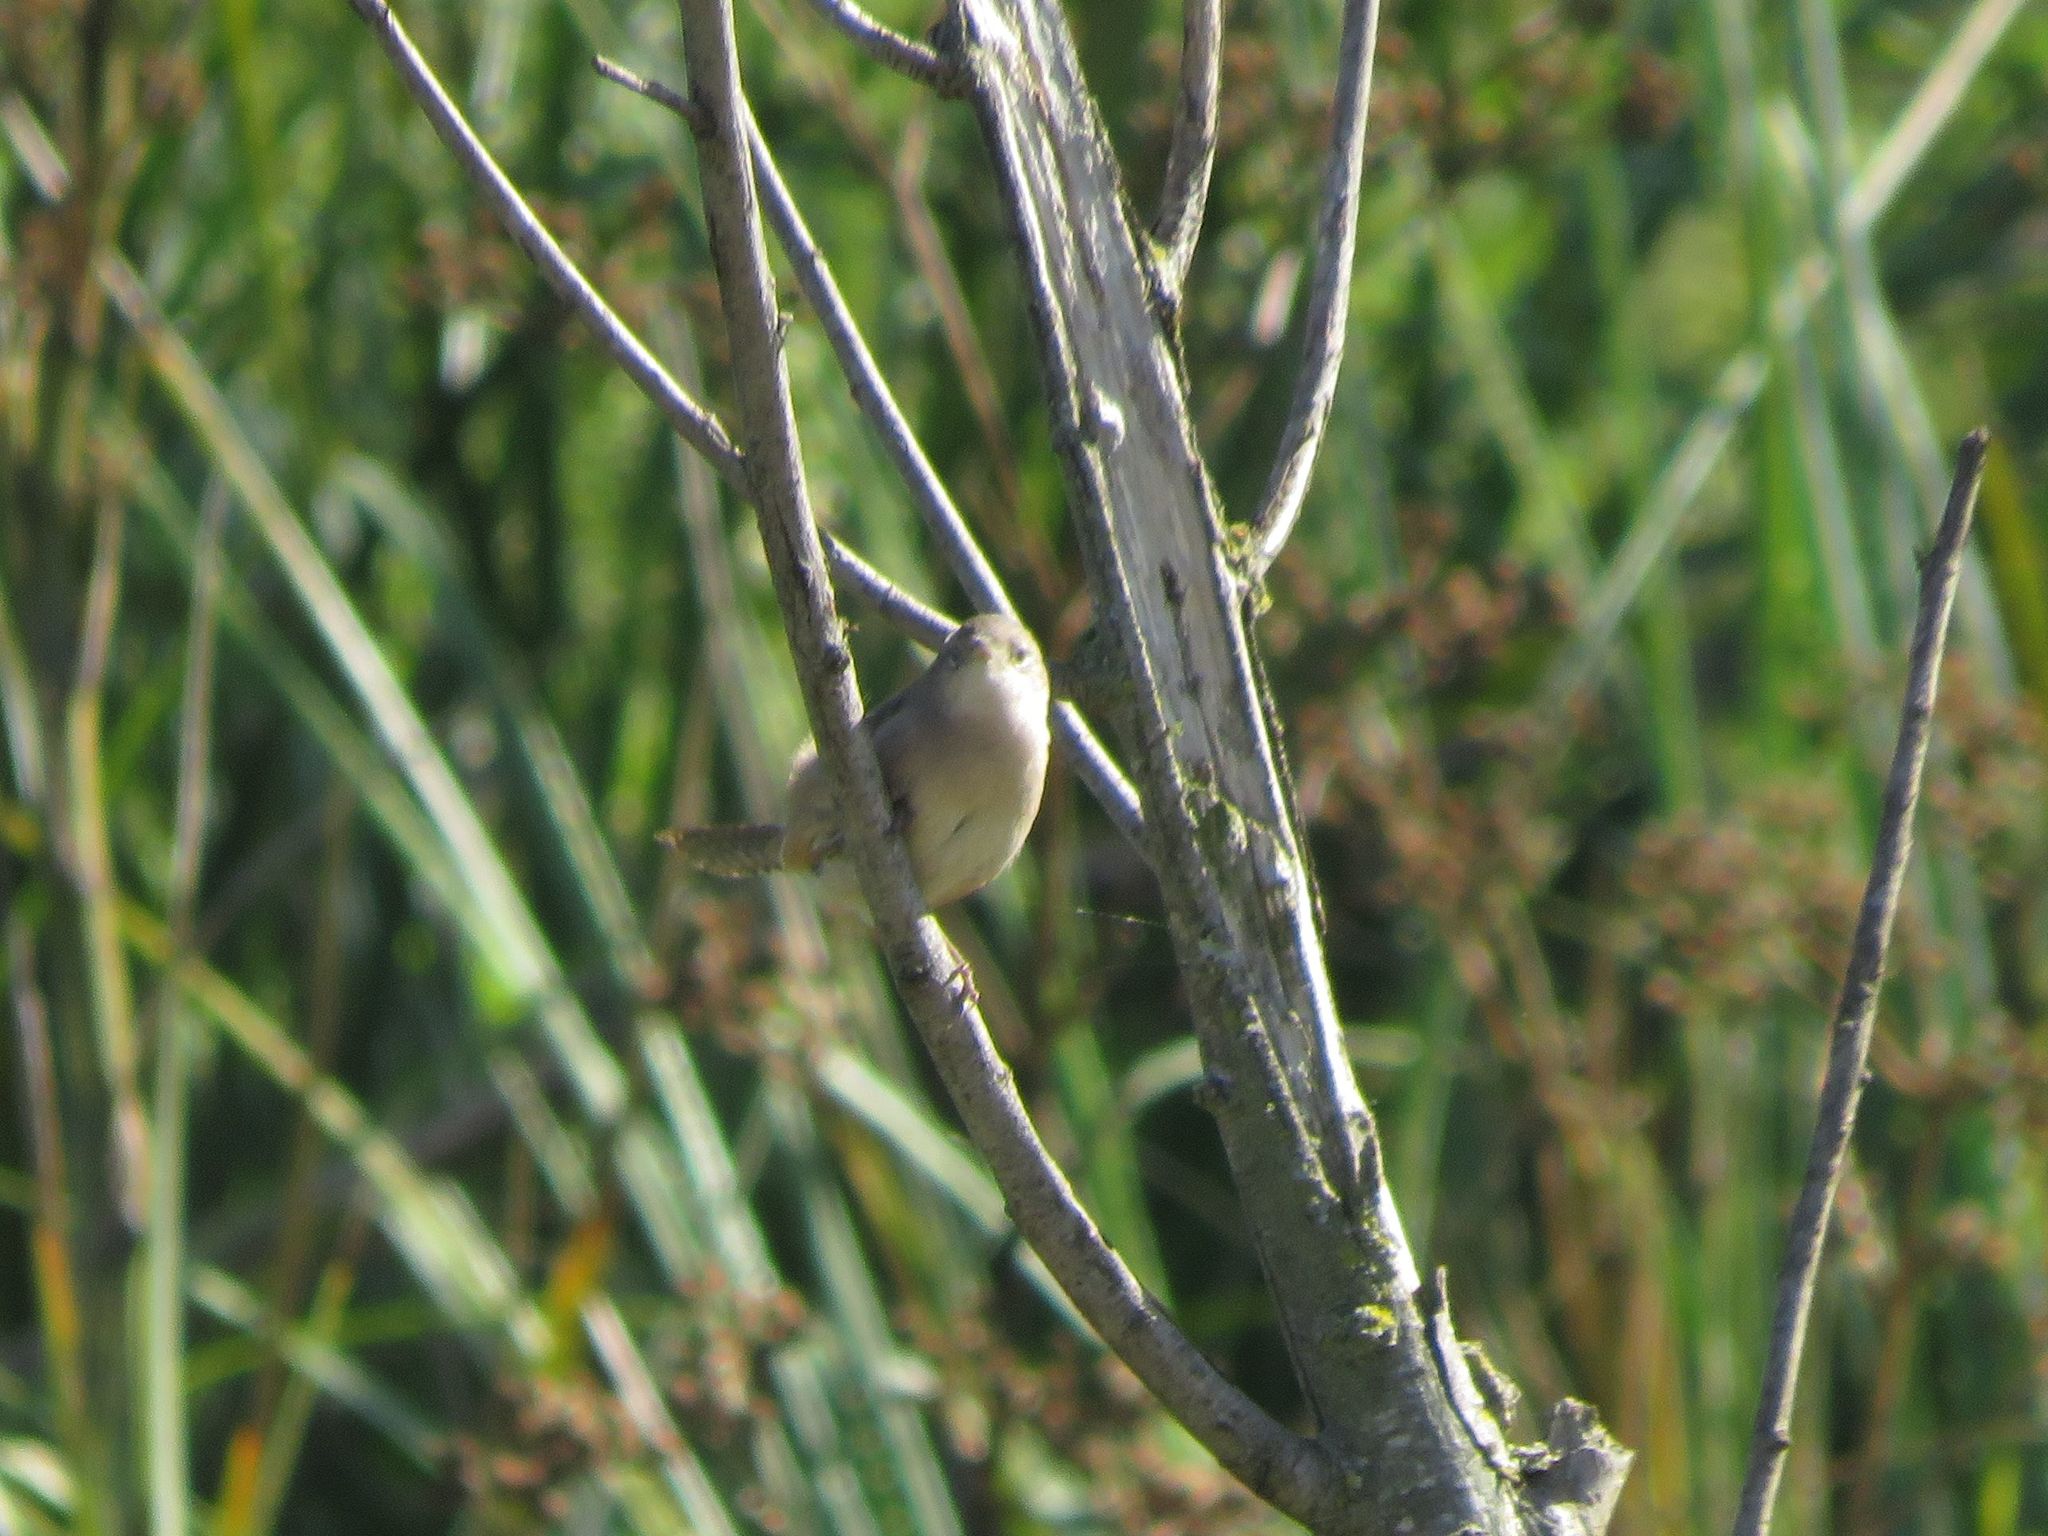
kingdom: Animalia
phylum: Chordata
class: Aves
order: Passeriformes
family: Troglodytidae
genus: Troglodytes
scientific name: Troglodytes aedon
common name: House wren
